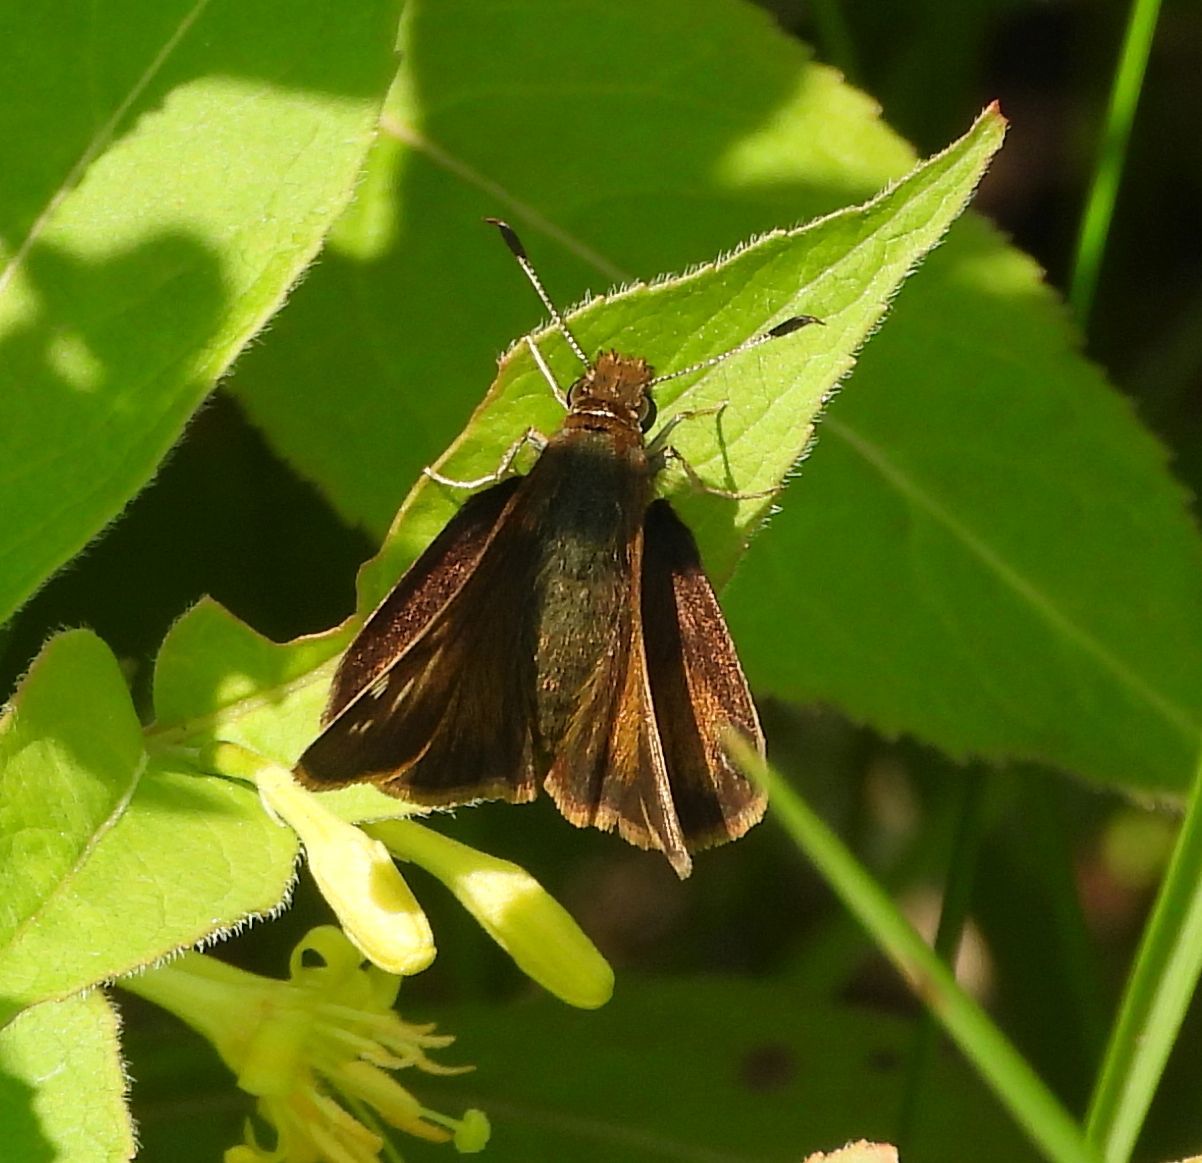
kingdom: Animalia
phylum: Arthropoda
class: Insecta
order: Lepidoptera
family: Hesperiidae
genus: Lon
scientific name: Lon hobomok
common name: Hobomok skipper
